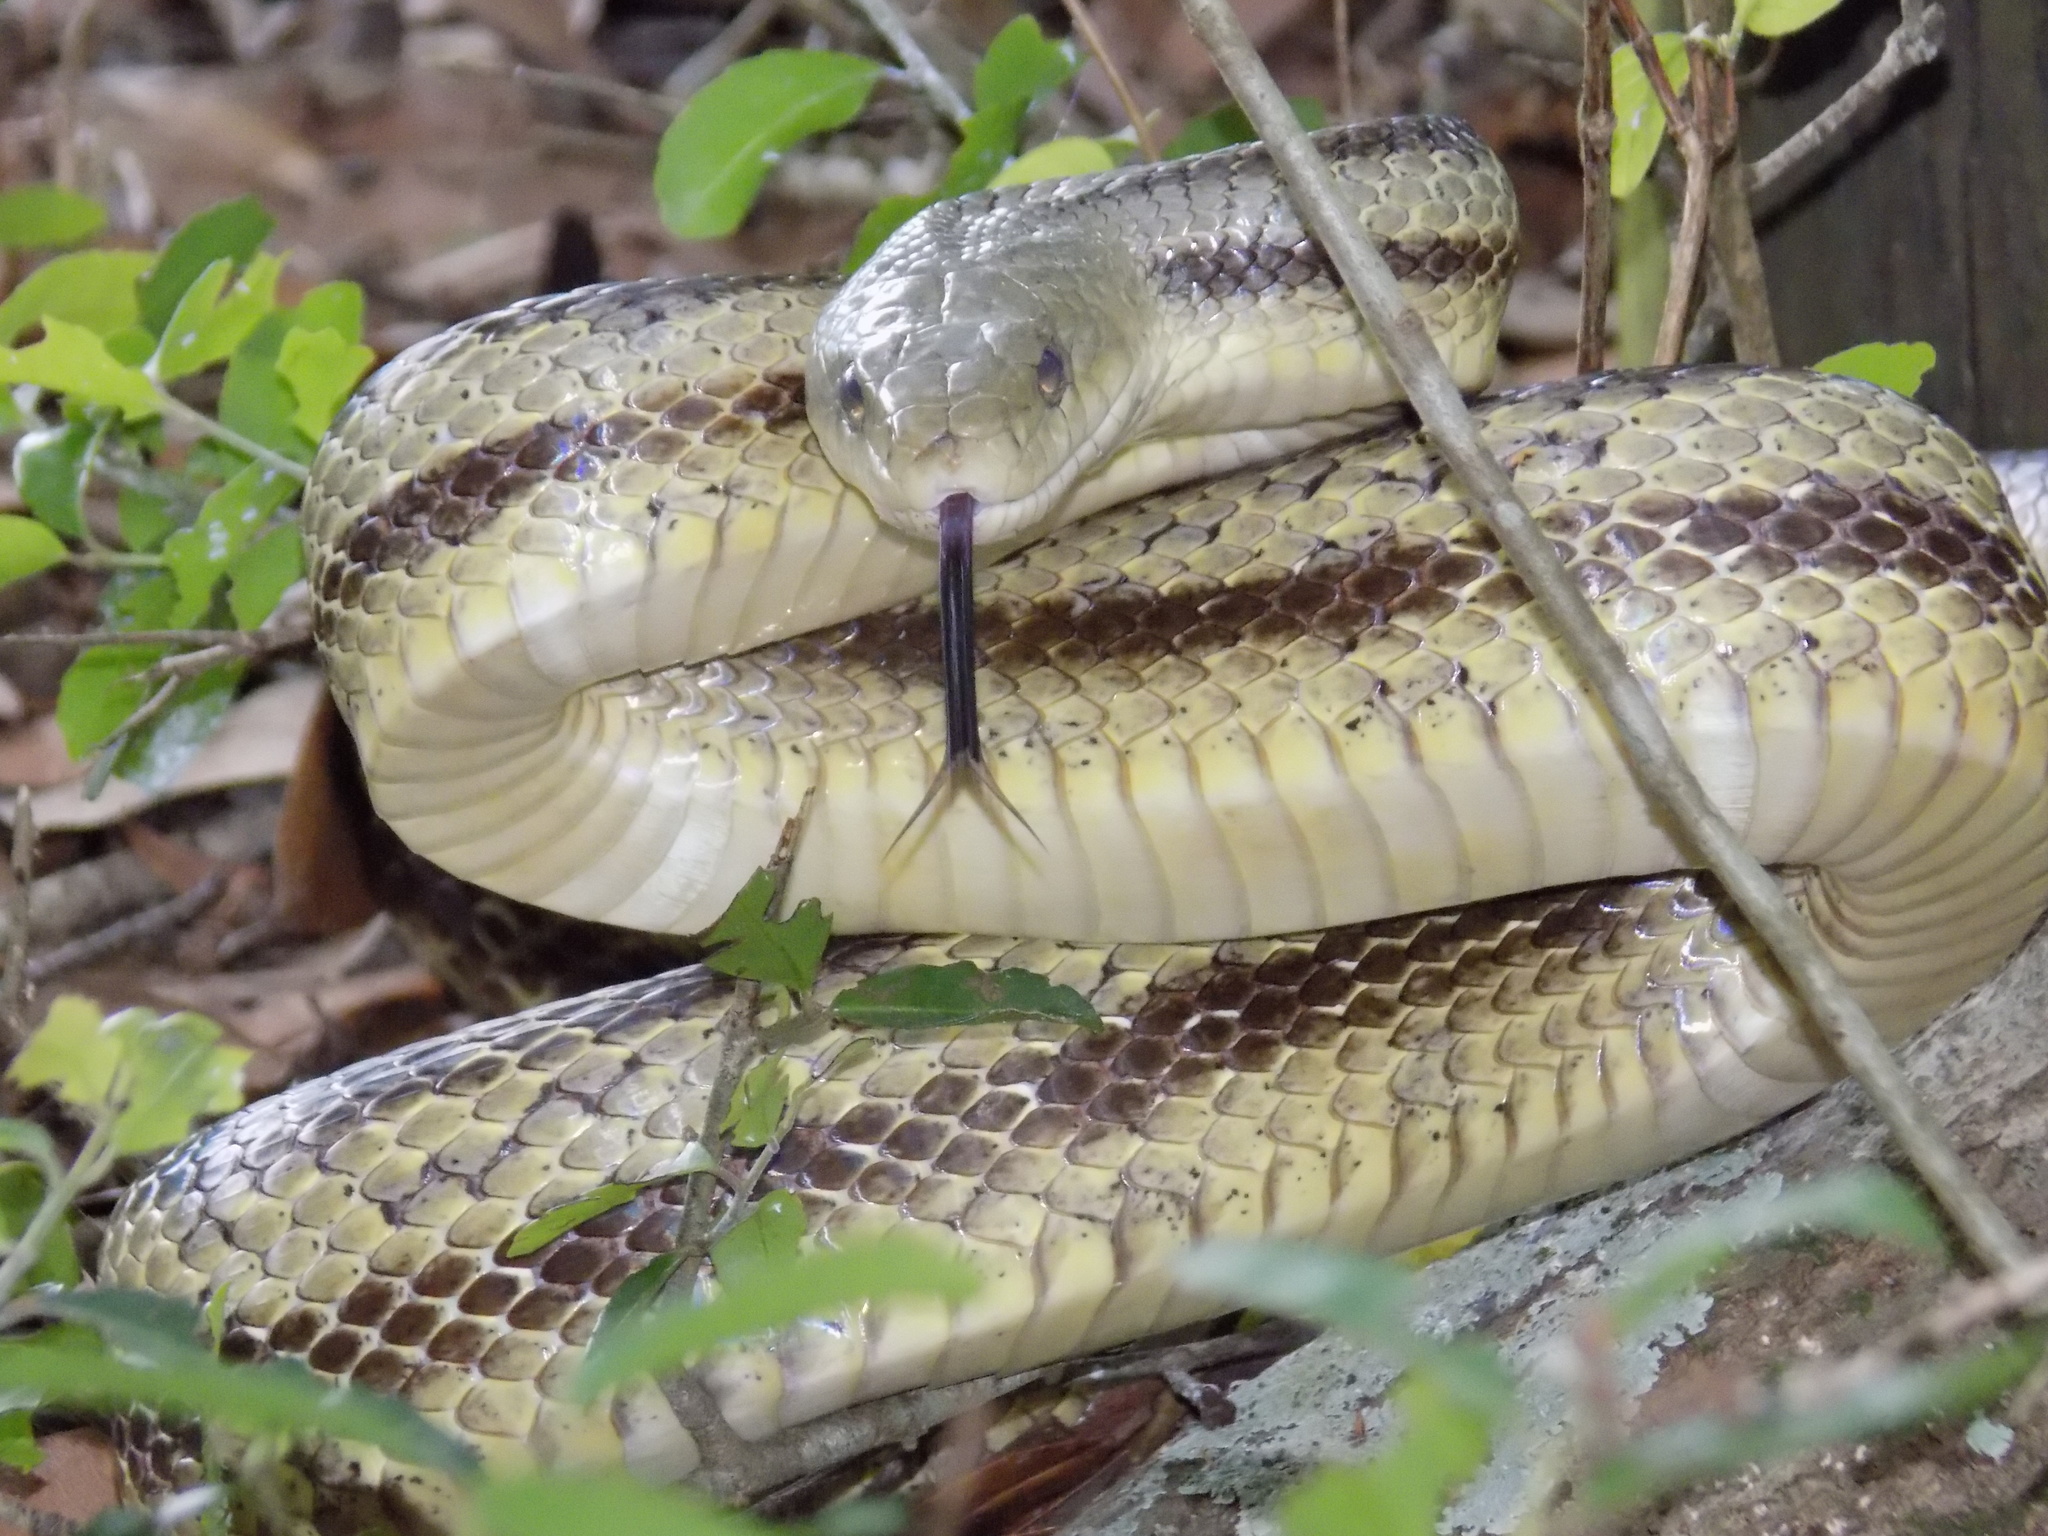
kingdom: Animalia
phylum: Chordata
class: Squamata
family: Colubridae
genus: Pantherophis
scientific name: Pantherophis alleghaniensis
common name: Eastern rat snake
